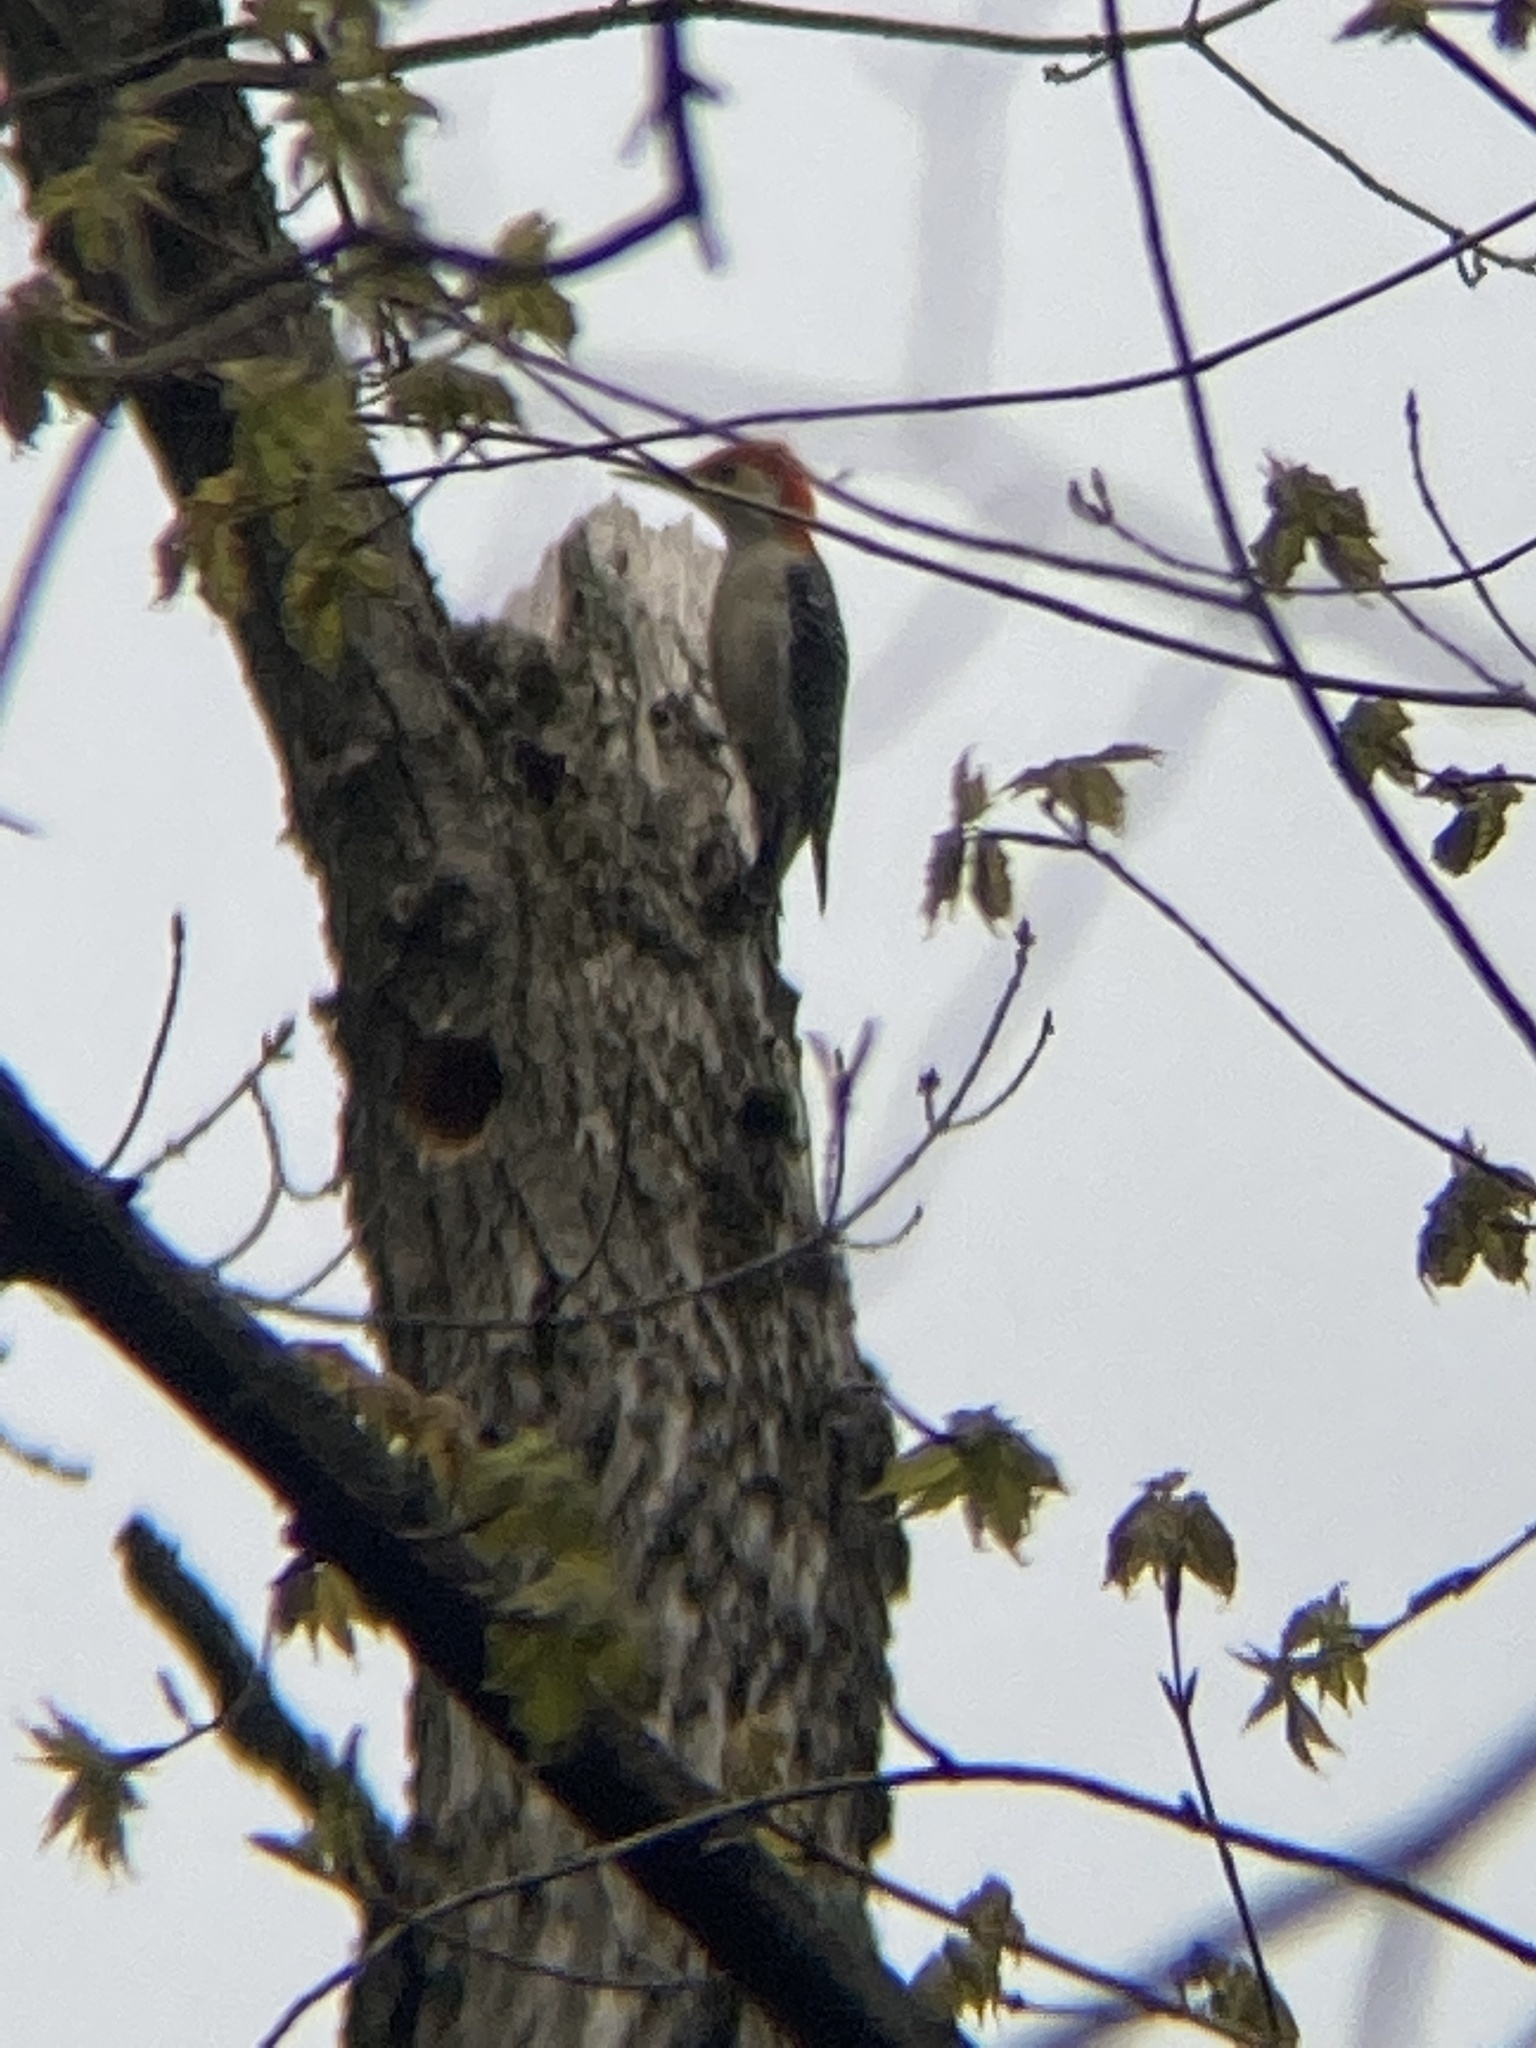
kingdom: Animalia
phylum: Chordata
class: Aves
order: Piciformes
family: Picidae
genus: Melanerpes
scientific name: Melanerpes carolinus
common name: Red-bellied woodpecker
